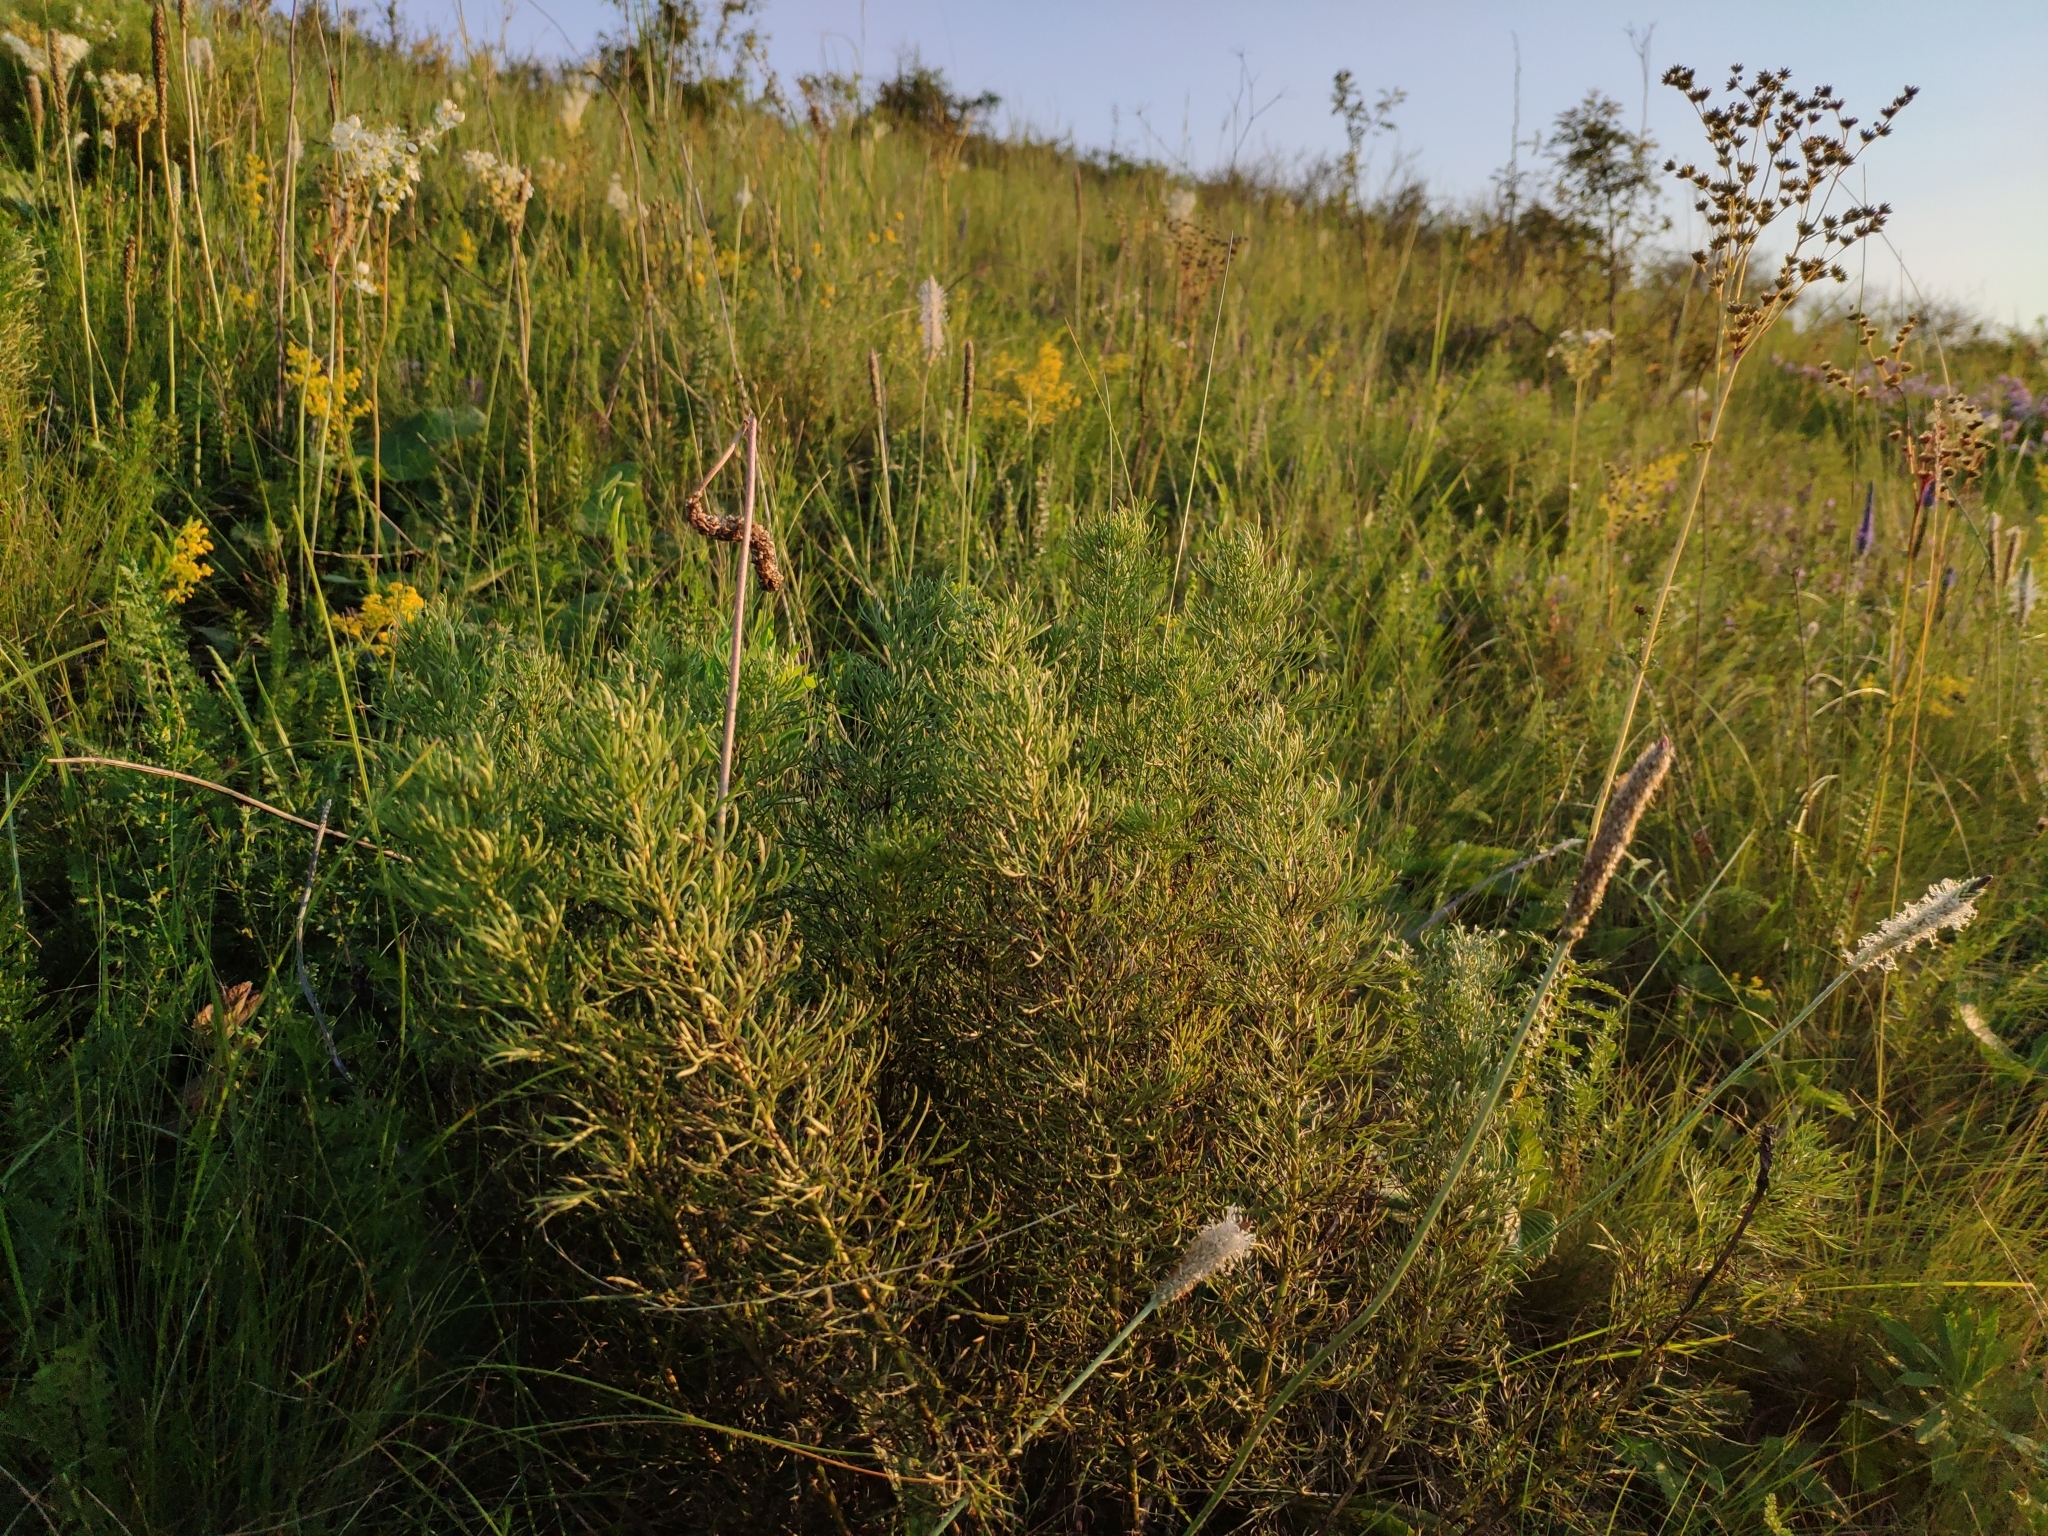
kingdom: Plantae
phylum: Tracheophyta
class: Magnoliopsida
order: Ranunculales
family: Ranunculaceae
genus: Adonis
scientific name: Adonis vernalis
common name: Yellow pheasants-eye
